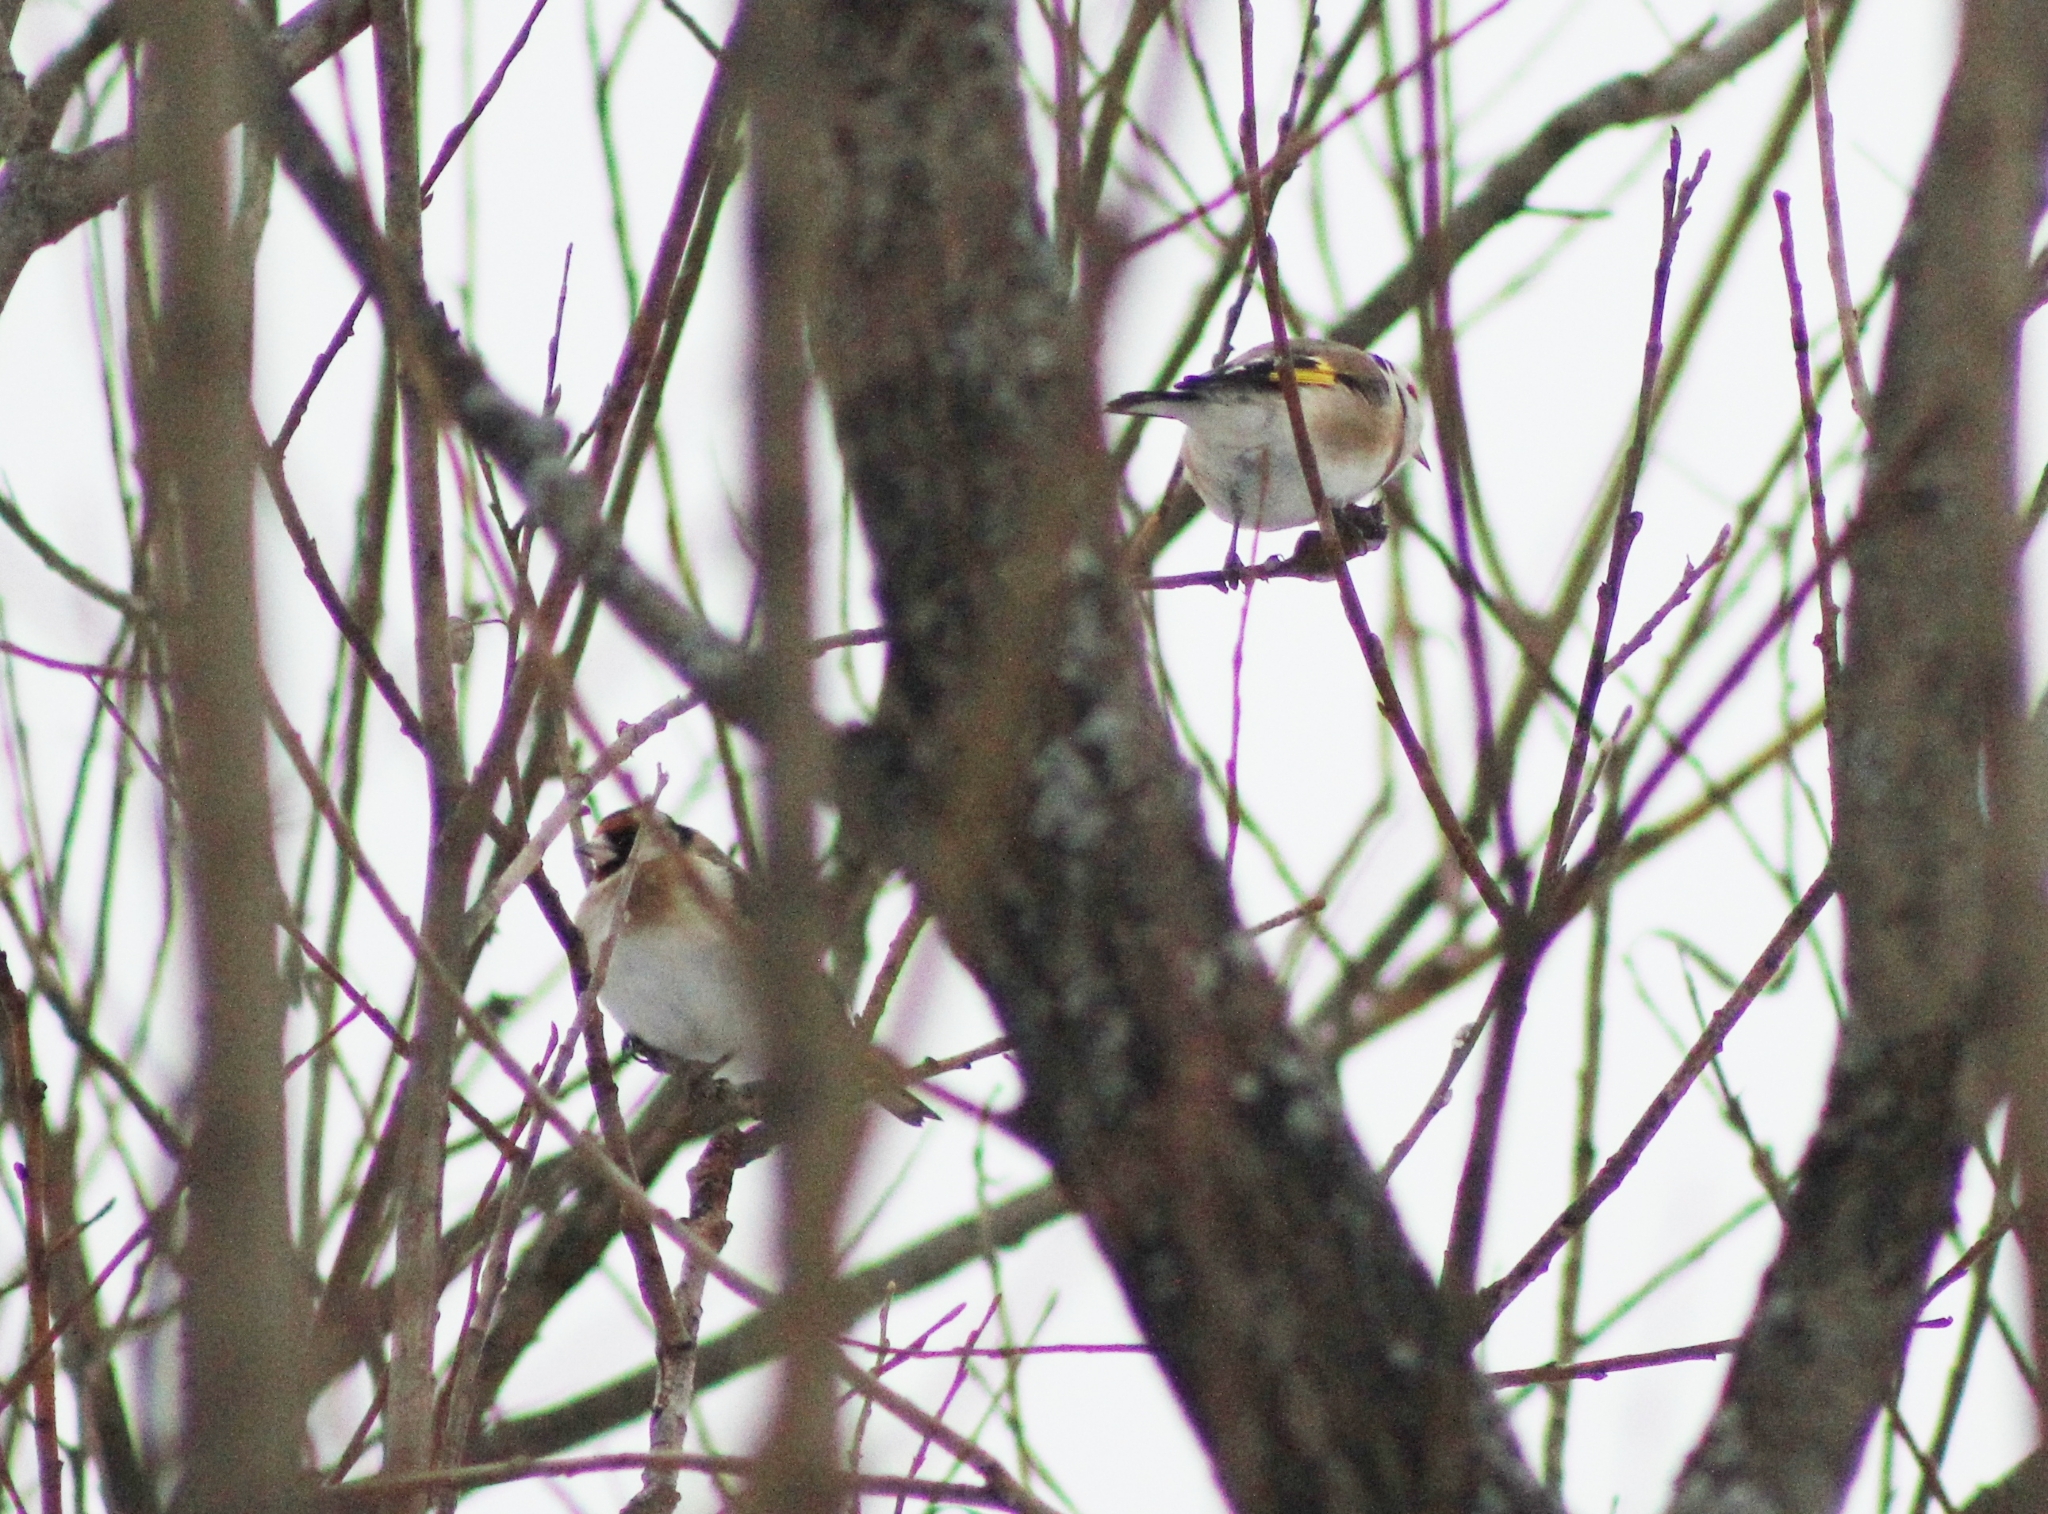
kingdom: Animalia
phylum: Chordata
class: Aves
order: Passeriformes
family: Fringillidae
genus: Carduelis
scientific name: Carduelis carduelis
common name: European goldfinch
